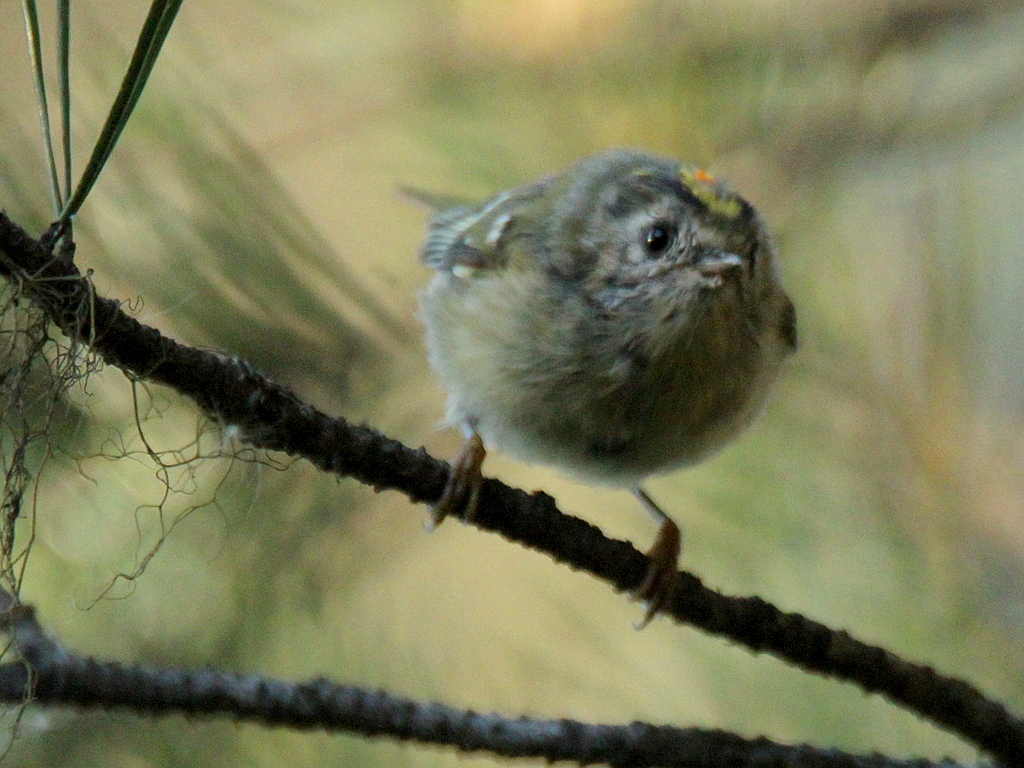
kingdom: Animalia
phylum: Chordata
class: Aves
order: Passeriformes
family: Regulidae
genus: Regulus
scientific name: Regulus regulus
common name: Goldcrest
